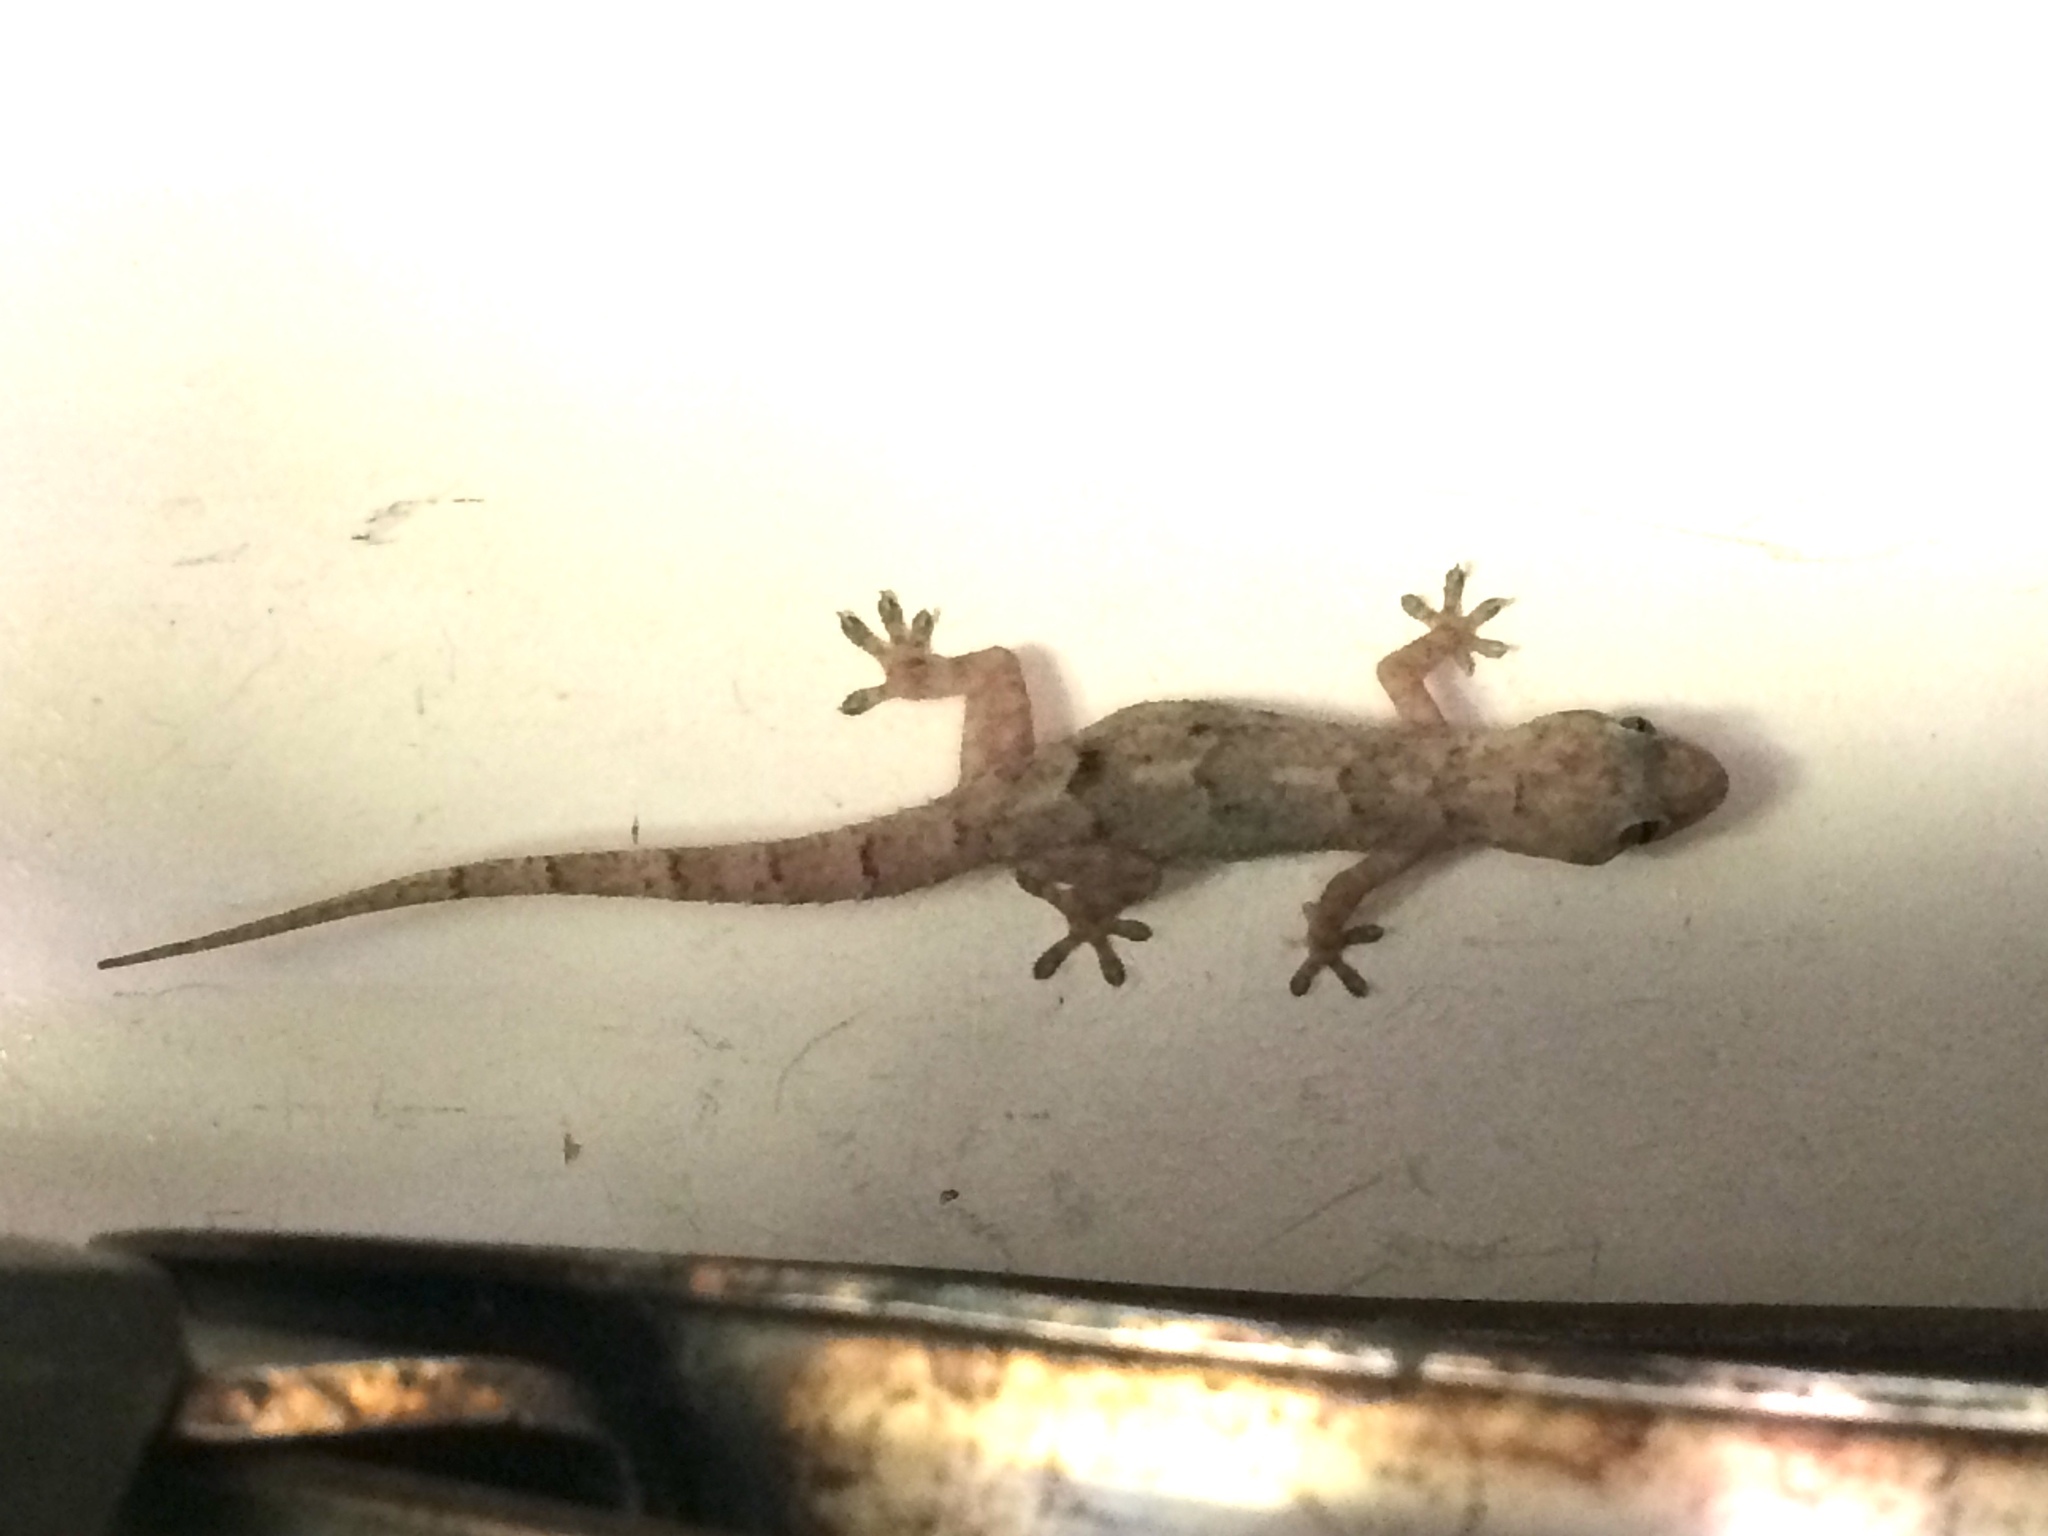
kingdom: Animalia
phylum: Chordata
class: Squamata
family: Gekkonidae
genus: Hemidactylus
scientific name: Hemidactylus mabouia
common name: House gecko
